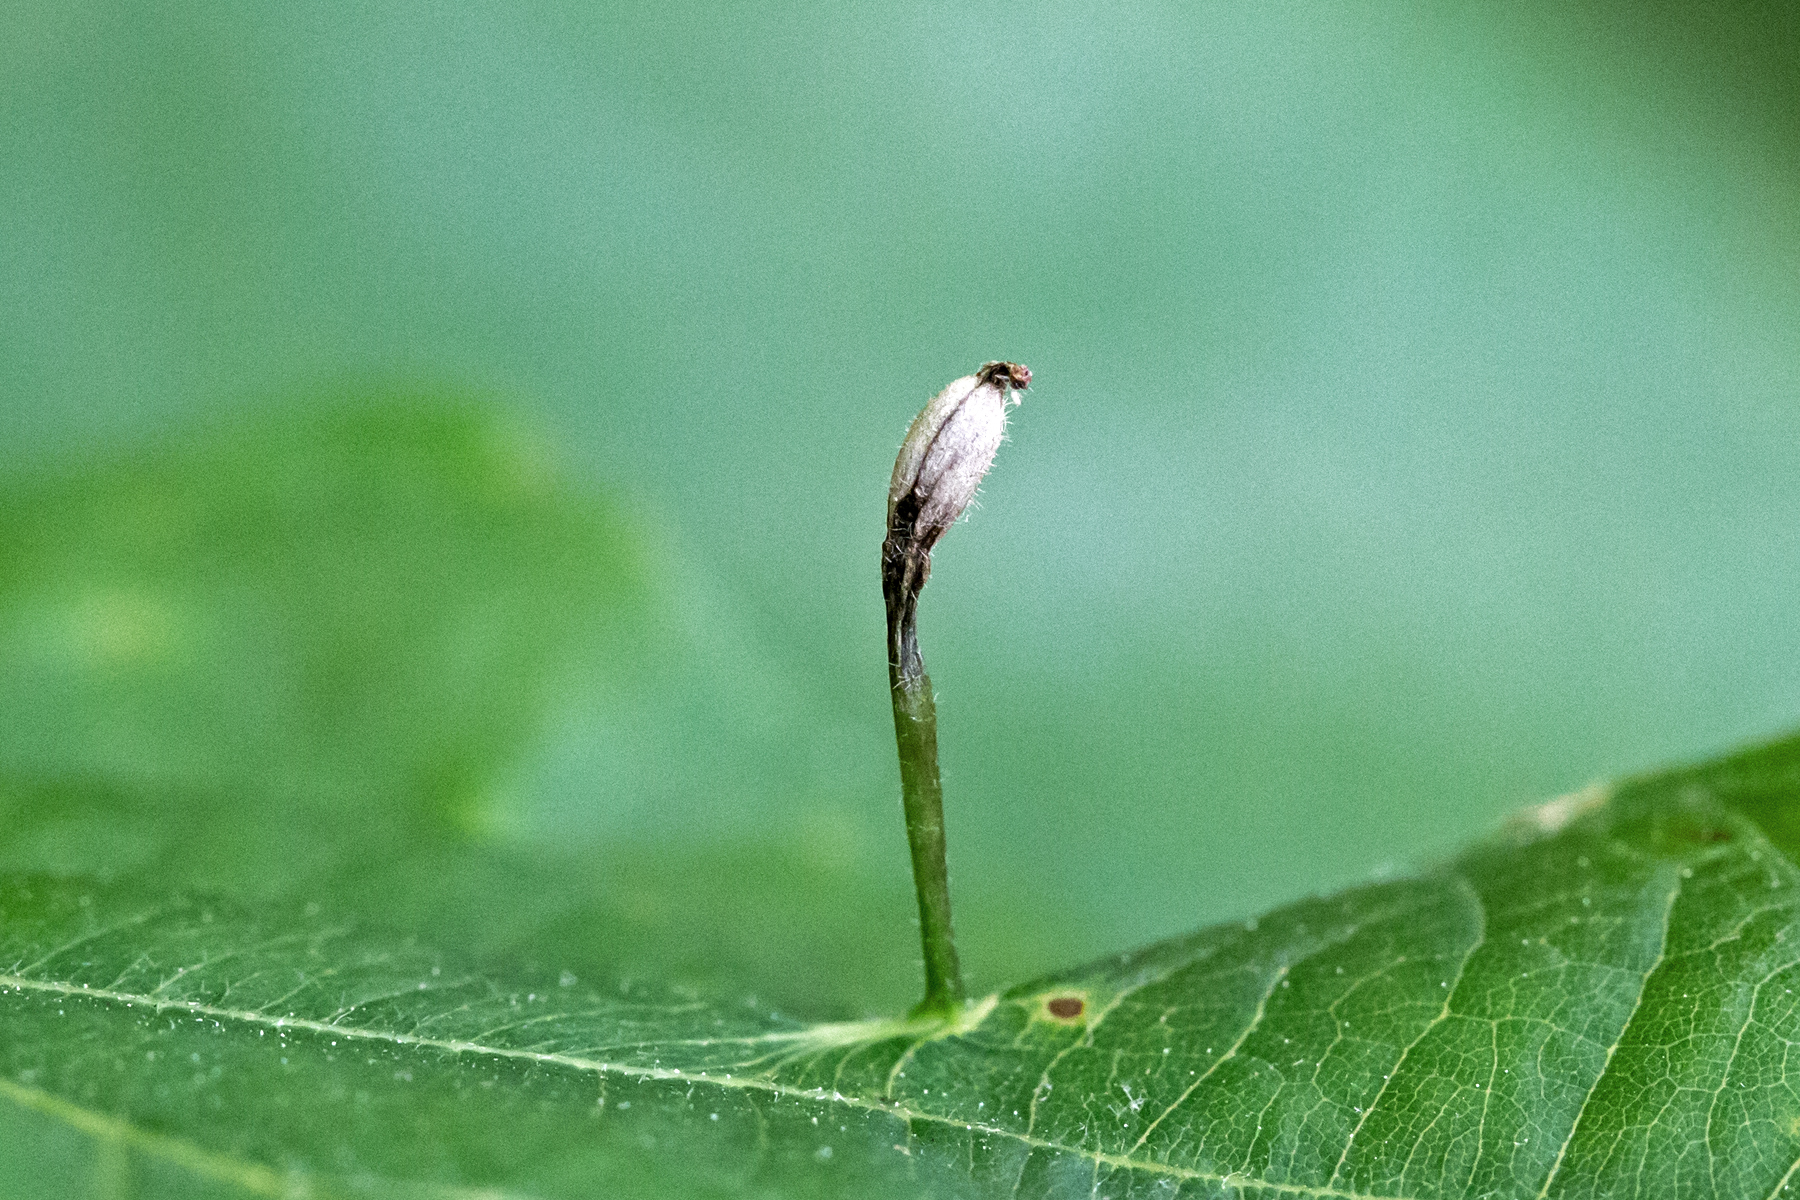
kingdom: Animalia
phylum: Arthropoda
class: Insecta
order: Hymenoptera
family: Cynipidae
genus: Andricus
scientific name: Andricus
